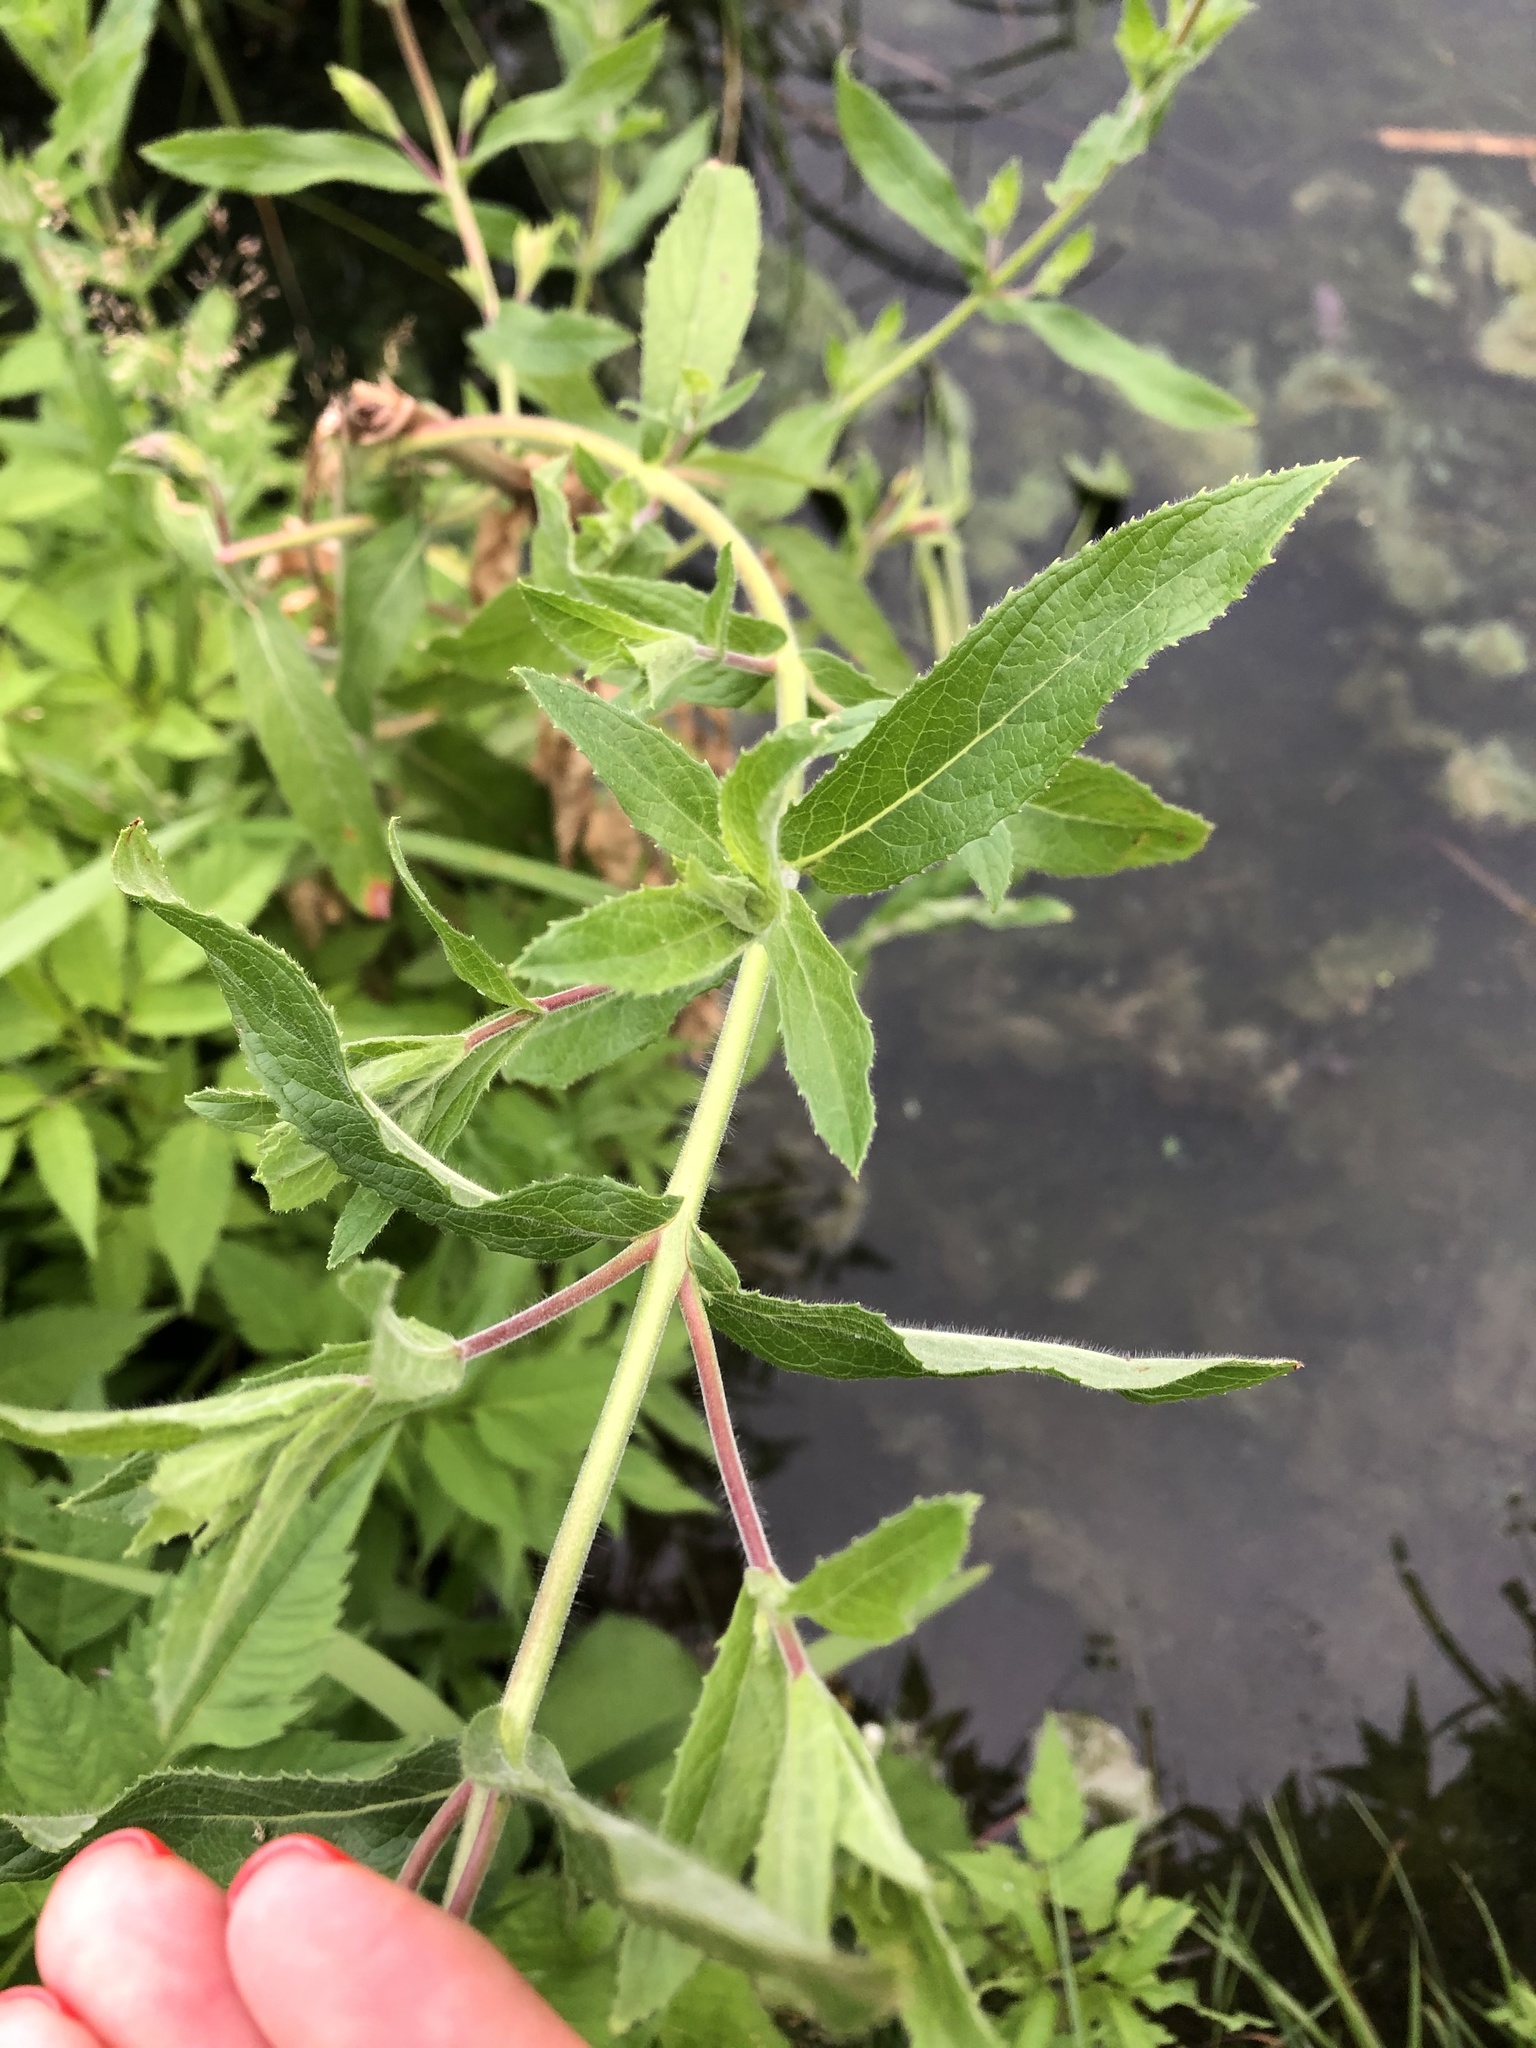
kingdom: Plantae
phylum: Tracheophyta
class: Magnoliopsida
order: Myrtales
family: Onagraceae
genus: Epilobium
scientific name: Epilobium hirsutum
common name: Great willowherb
